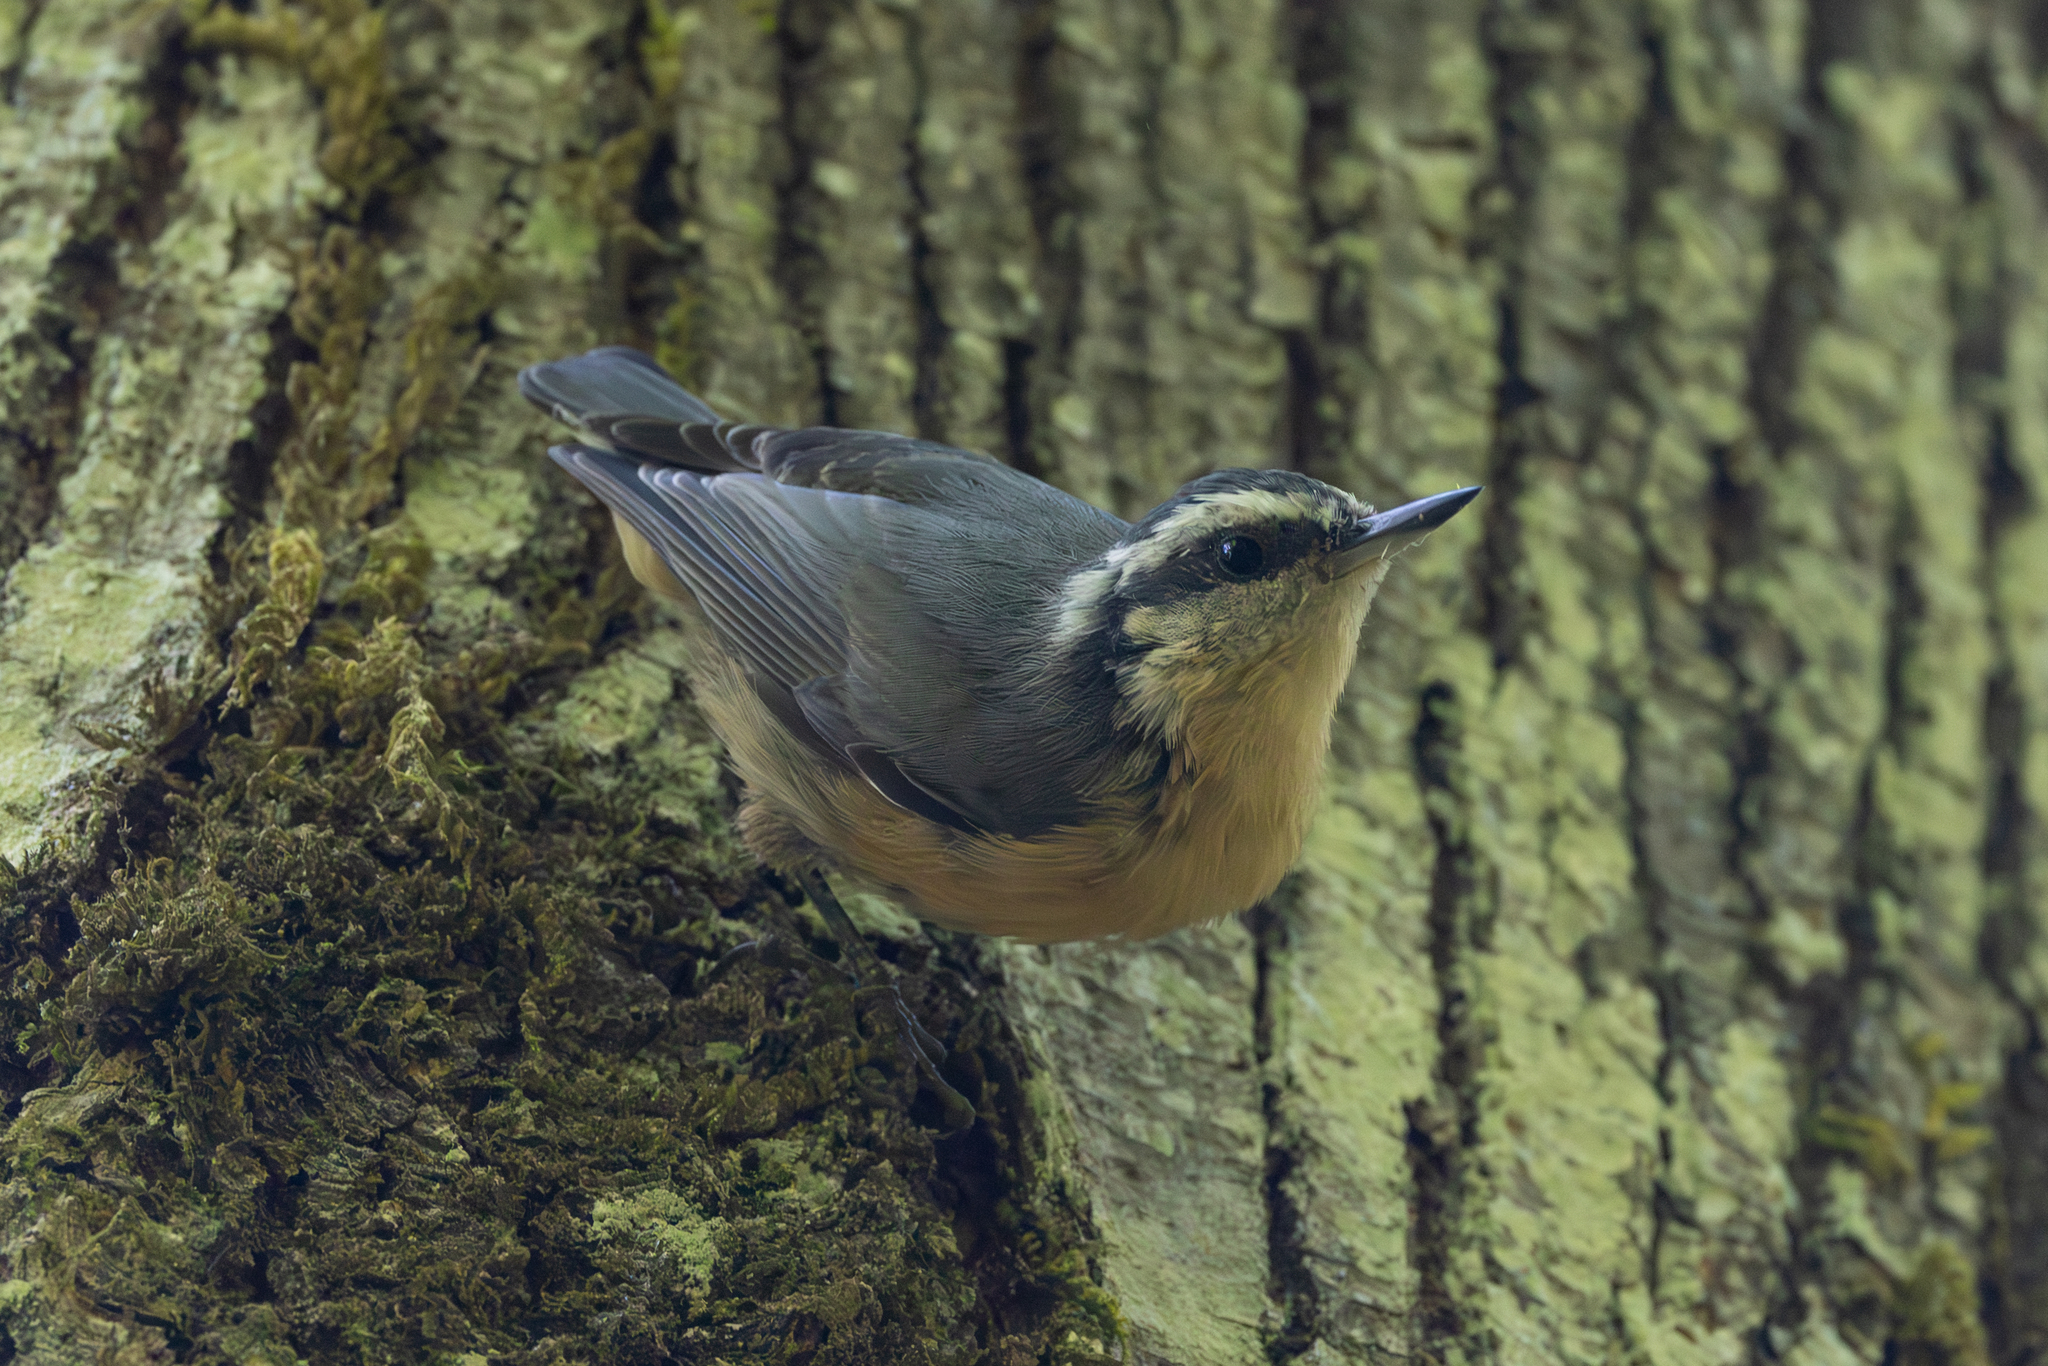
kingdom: Animalia
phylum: Chordata
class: Aves
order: Passeriformes
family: Sittidae
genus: Sitta
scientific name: Sitta canadensis
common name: Red-breasted nuthatch
